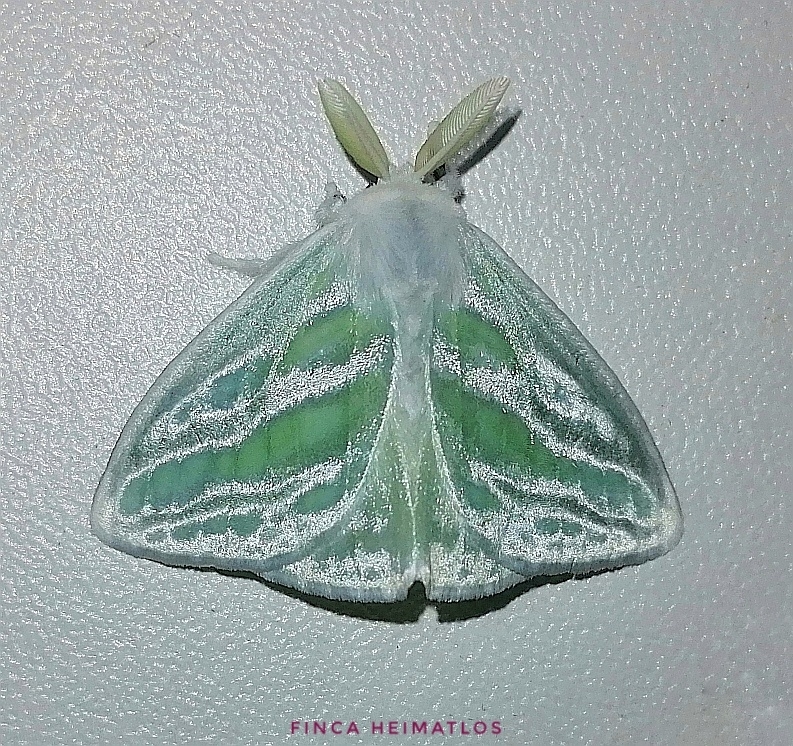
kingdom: Animalia
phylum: Arthropoda
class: Insecta
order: Lepidoptera
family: Erebidae
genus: Caviria
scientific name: Caviria regina
